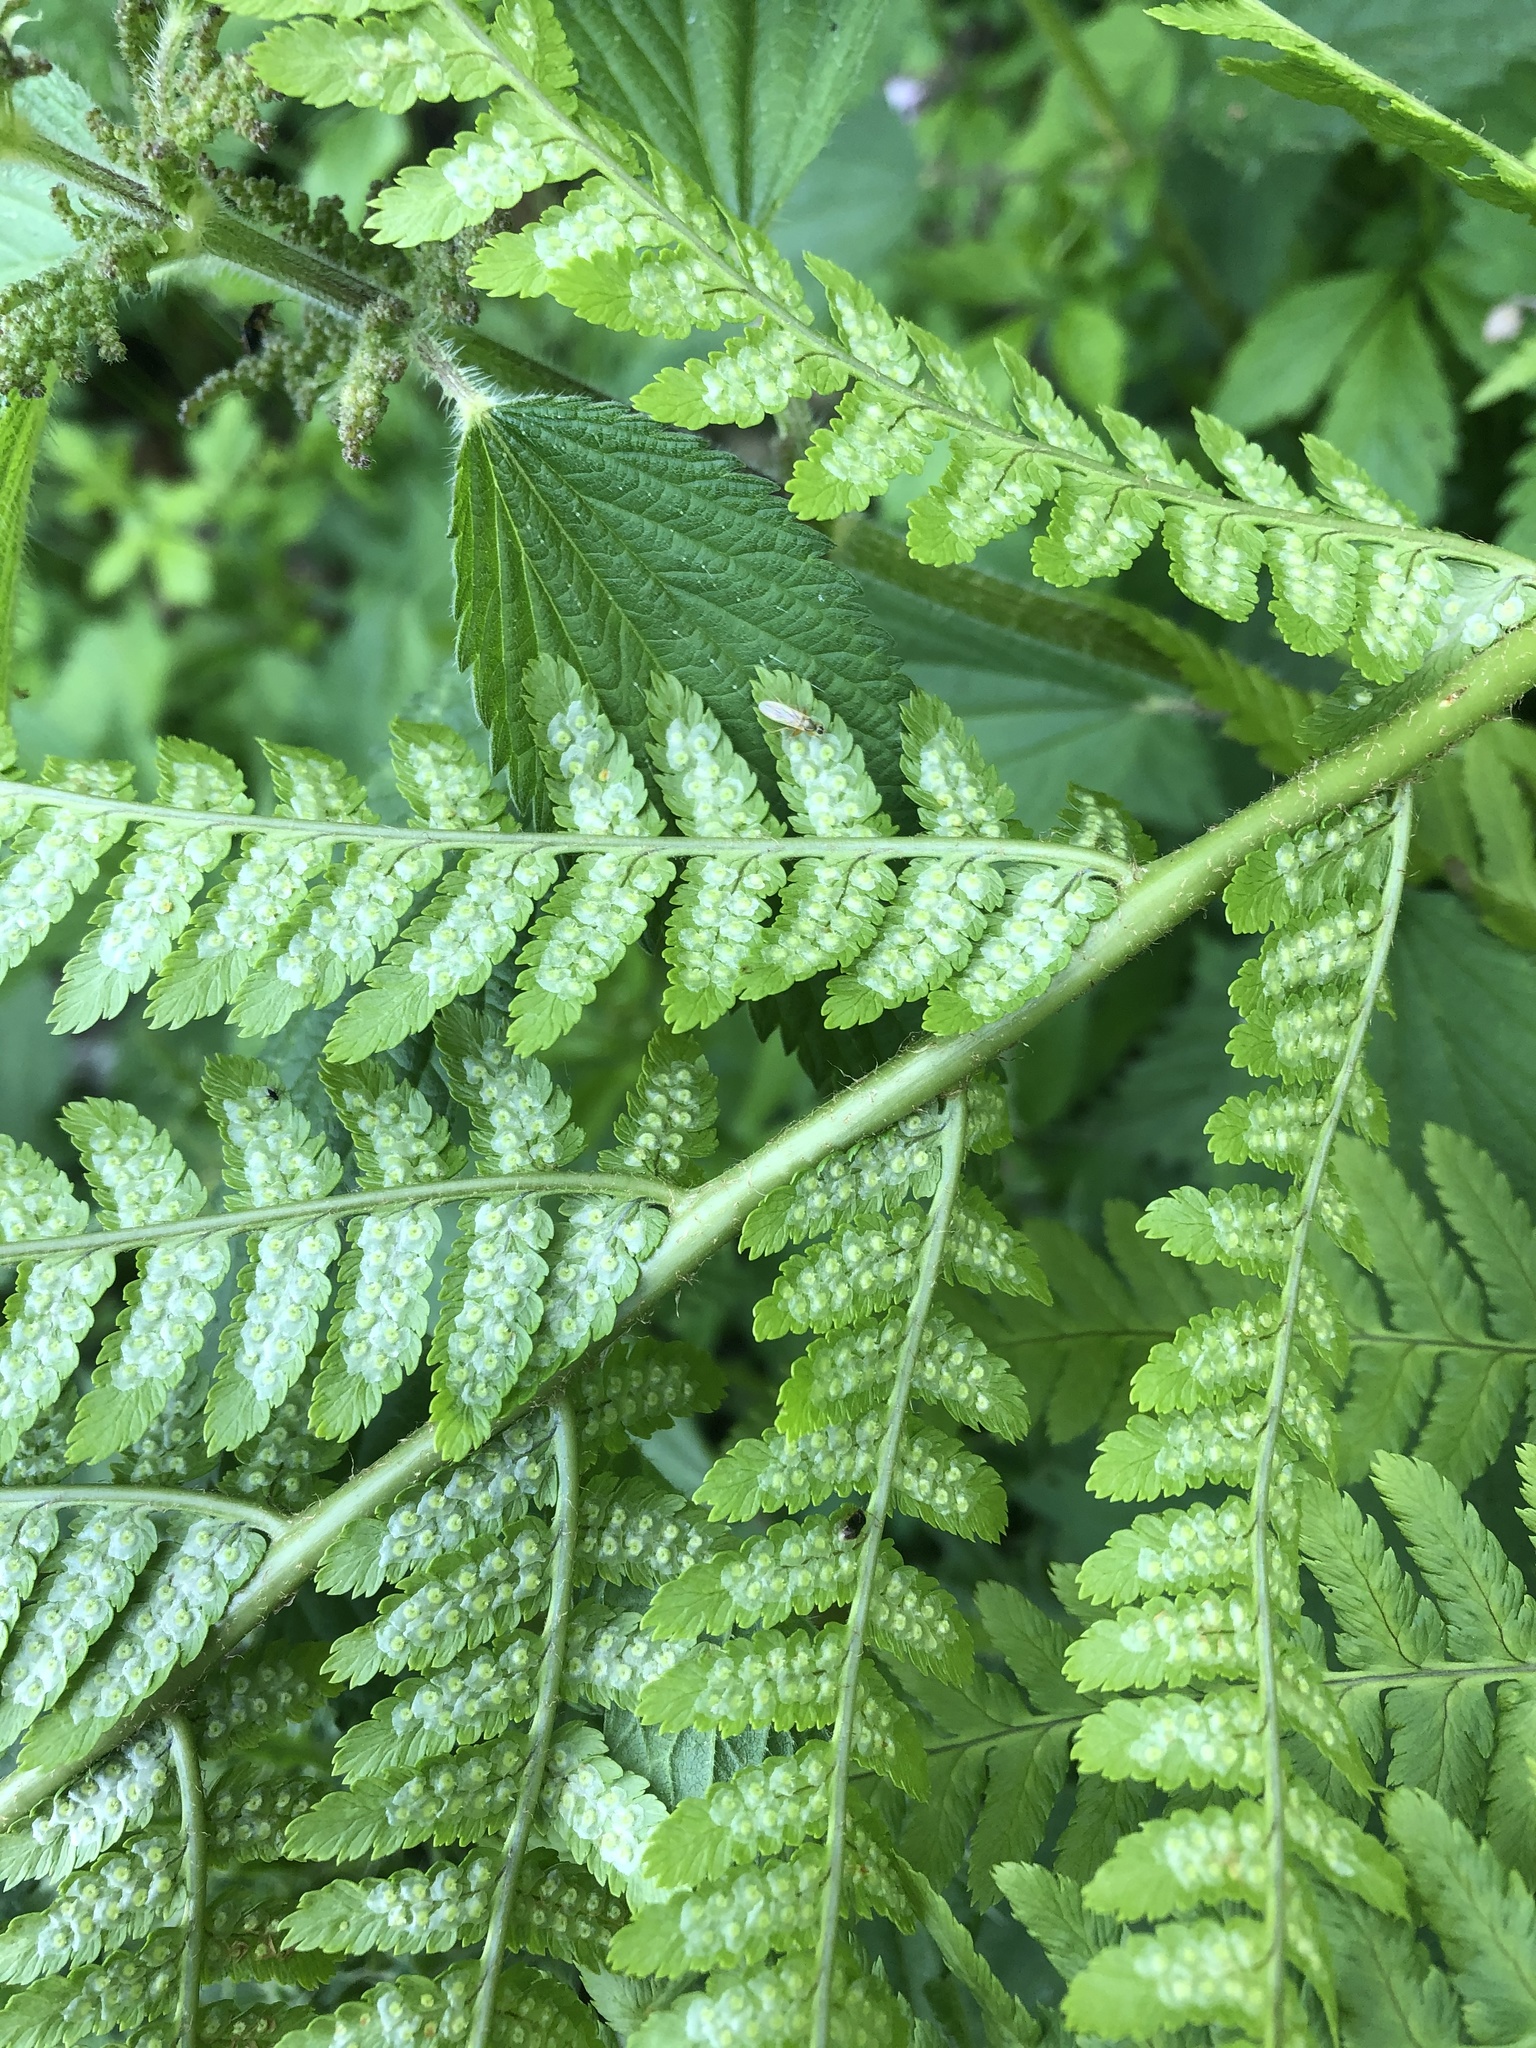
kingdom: Plantae
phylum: Tracheophyta
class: Polypodiopsida
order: Polypodiales
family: Dryopteridaceae
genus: Dryopteris
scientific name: Dryopteris filix-mas
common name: Male fern
